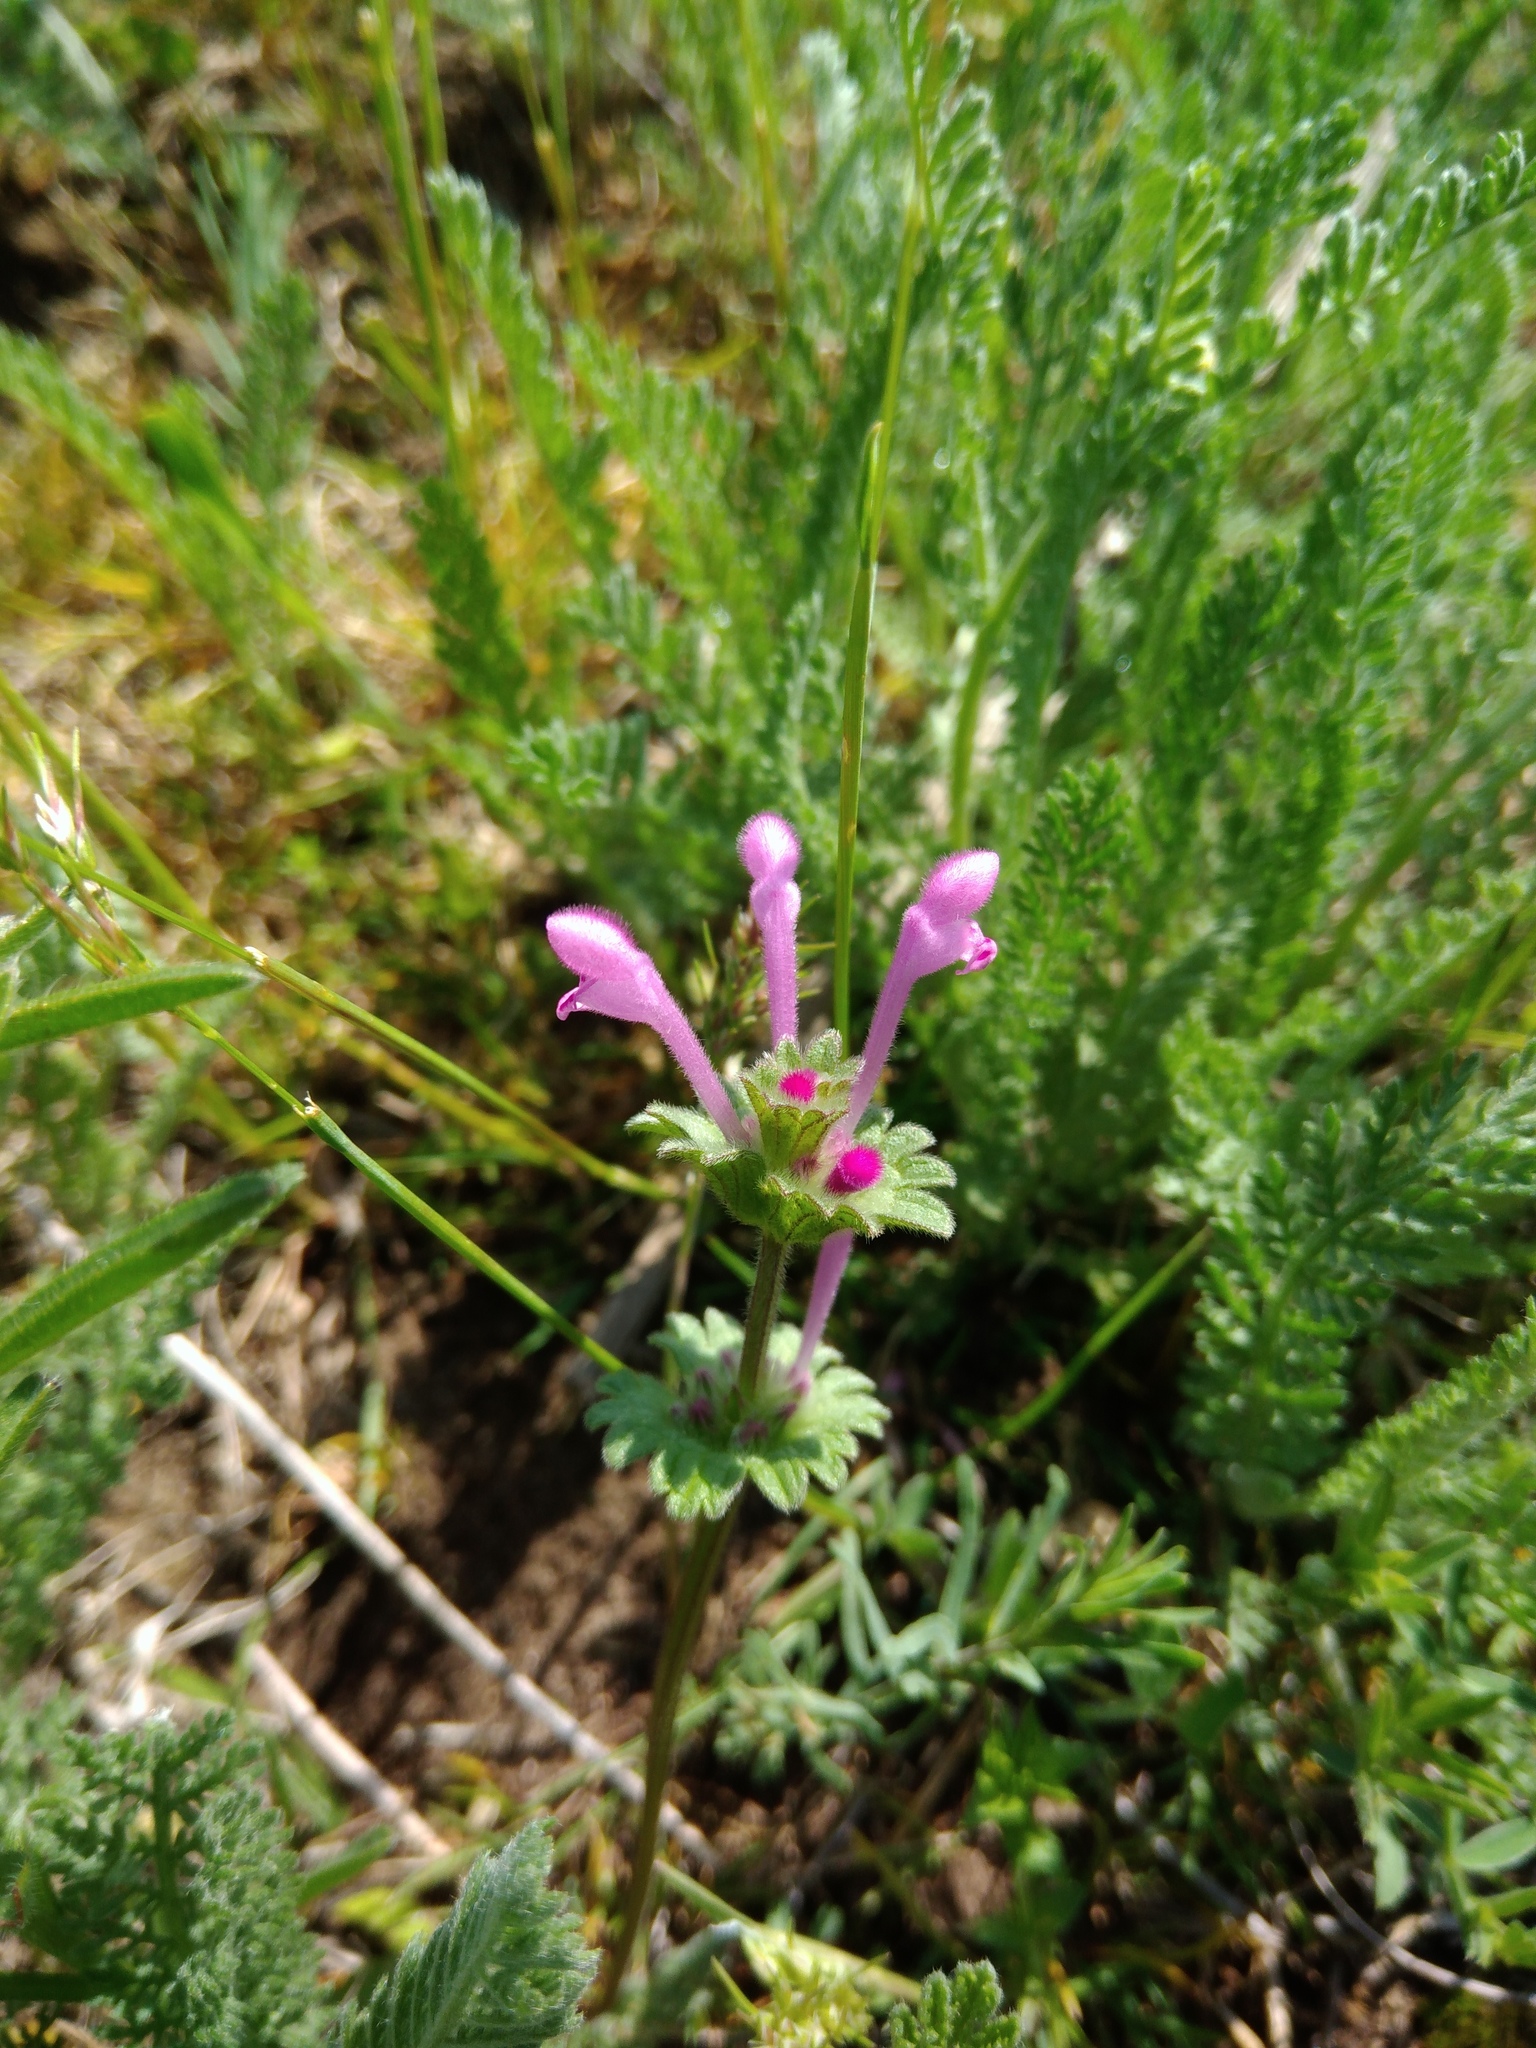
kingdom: Plantae
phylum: Tracheophyta
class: Magnoliopsida
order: Lamiales
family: Lamiaceae
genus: Lamium
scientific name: Lamium amplexicaule
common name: Henbit dead-nettle
